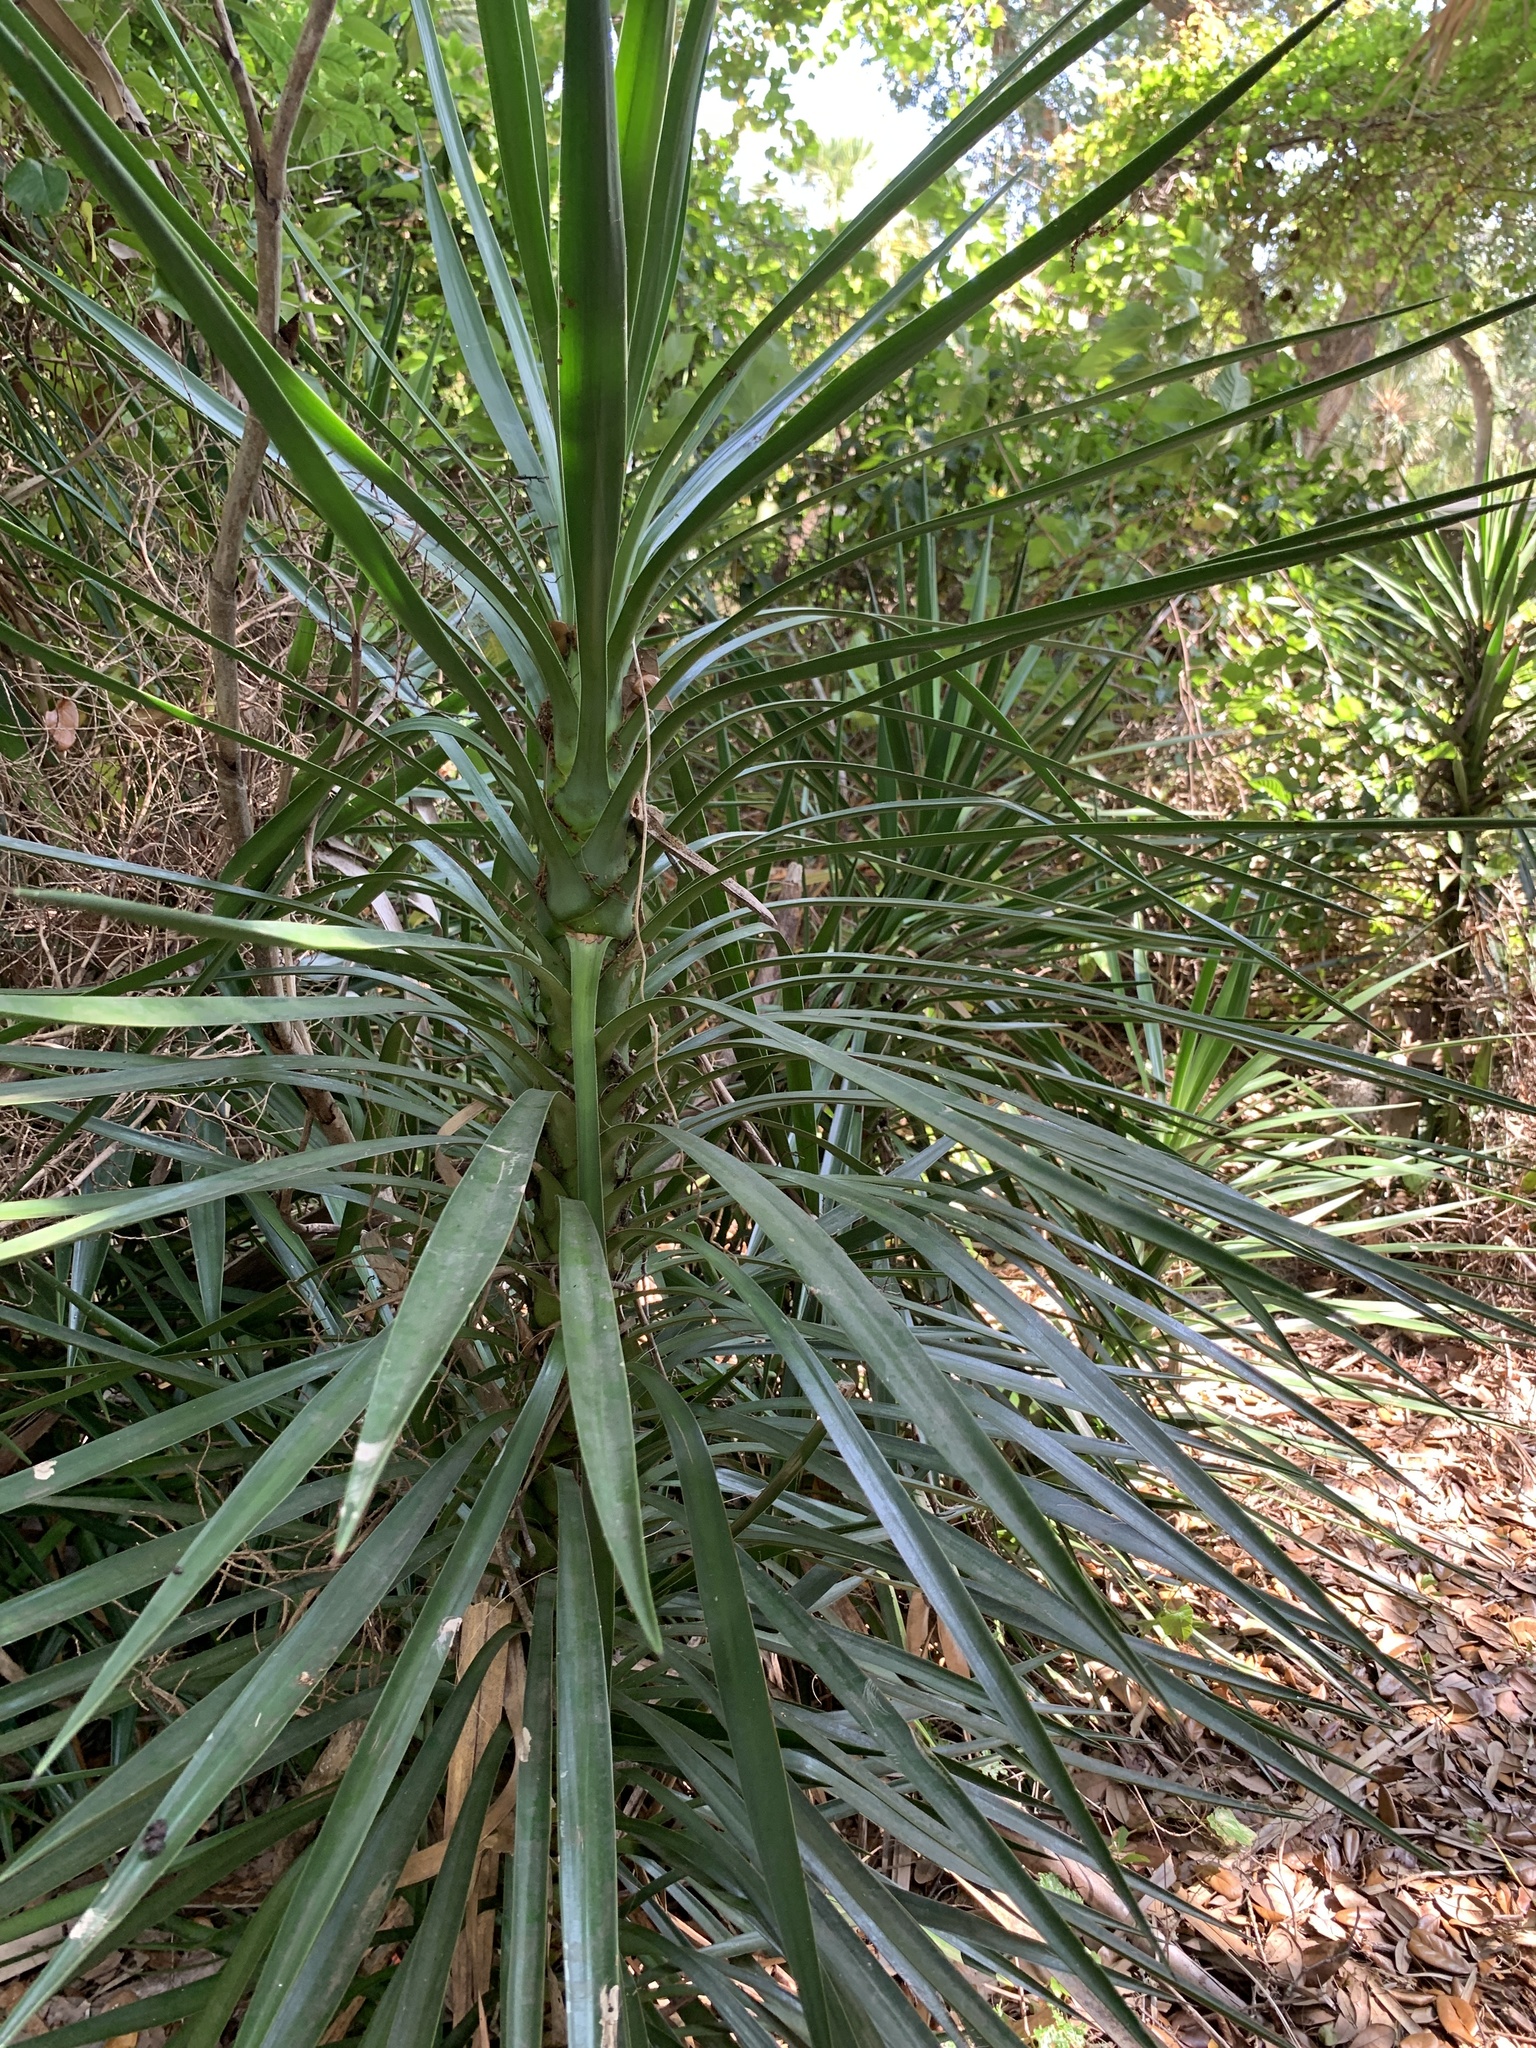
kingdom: Plantae
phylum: Tracheophyta
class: Liliopsida
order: Asparagales
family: Asparagaceae
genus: Yucca
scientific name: Yucca aloifolia
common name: Aloe yucca
